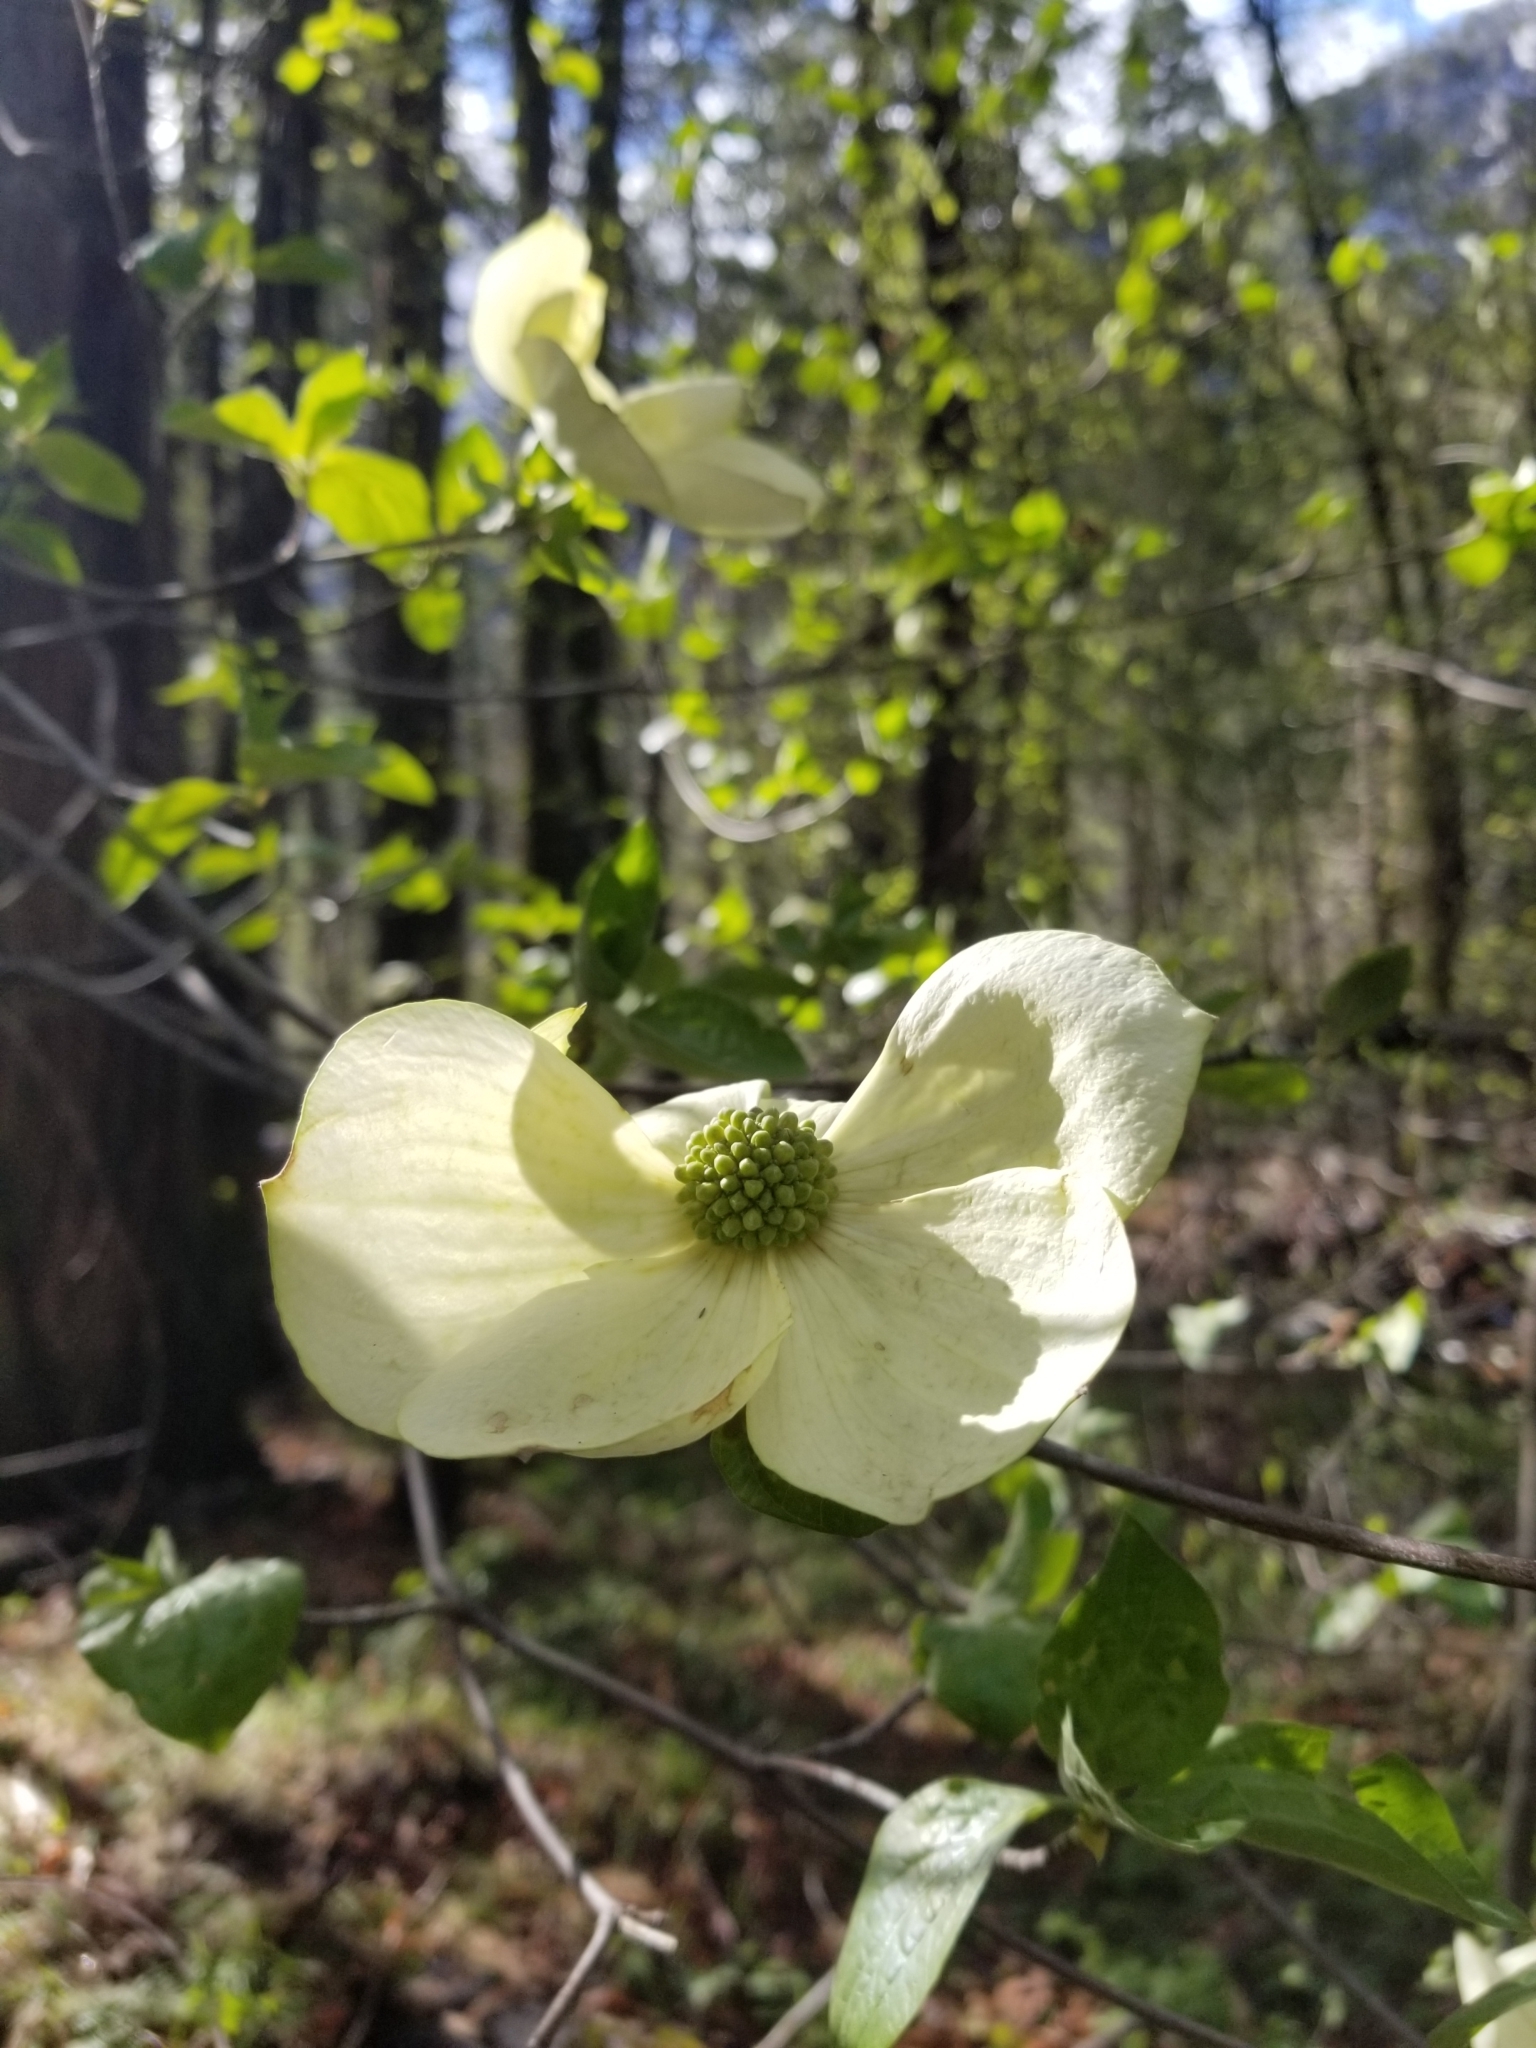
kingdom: Plantae
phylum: Tracheophyta
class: Magnoliopsida
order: Cornales
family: Cornaceae
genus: Cornus
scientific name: Cornus nuttallii
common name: Pacific dogwood
